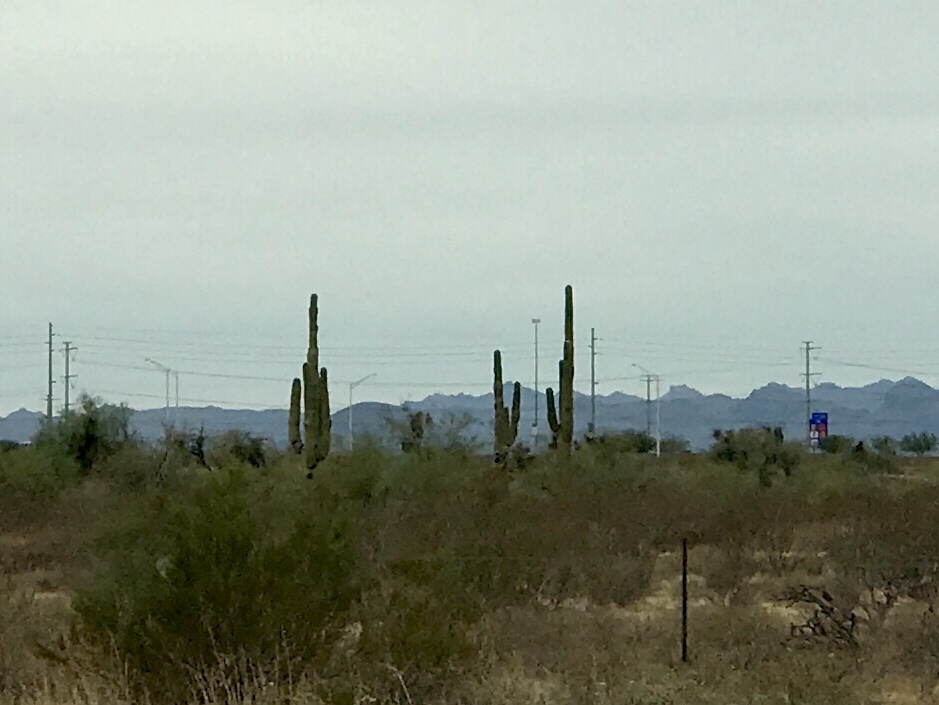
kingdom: Plantae
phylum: Tracheophyta
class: Magnoliopsida
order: Caryophyllales
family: Cactaceae
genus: Carnegiea
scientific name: Carnegiea gigantea
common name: Saguaro
